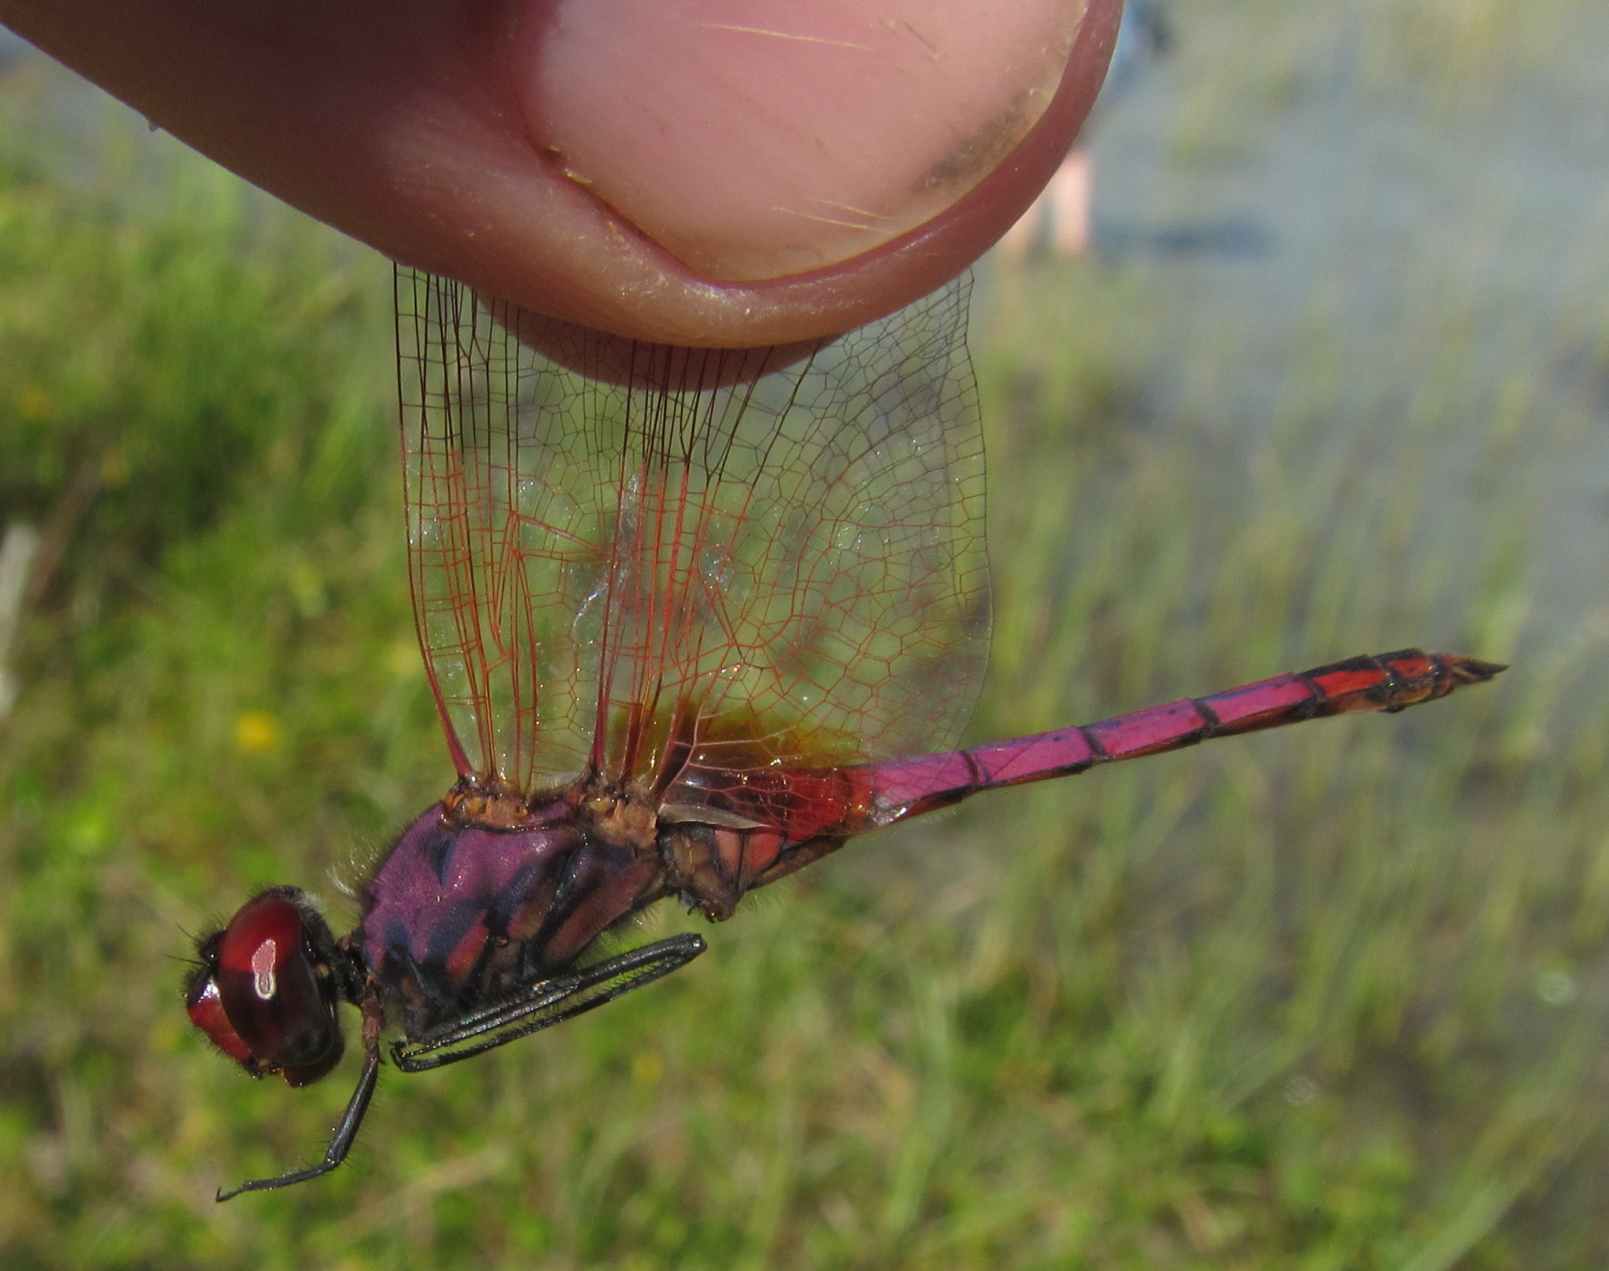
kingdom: Animalia
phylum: Arthropoda
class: Insecta
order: Odonata
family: Libellulidae
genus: Trithemis
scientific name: Trithemis annulata
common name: Violet dropwing
